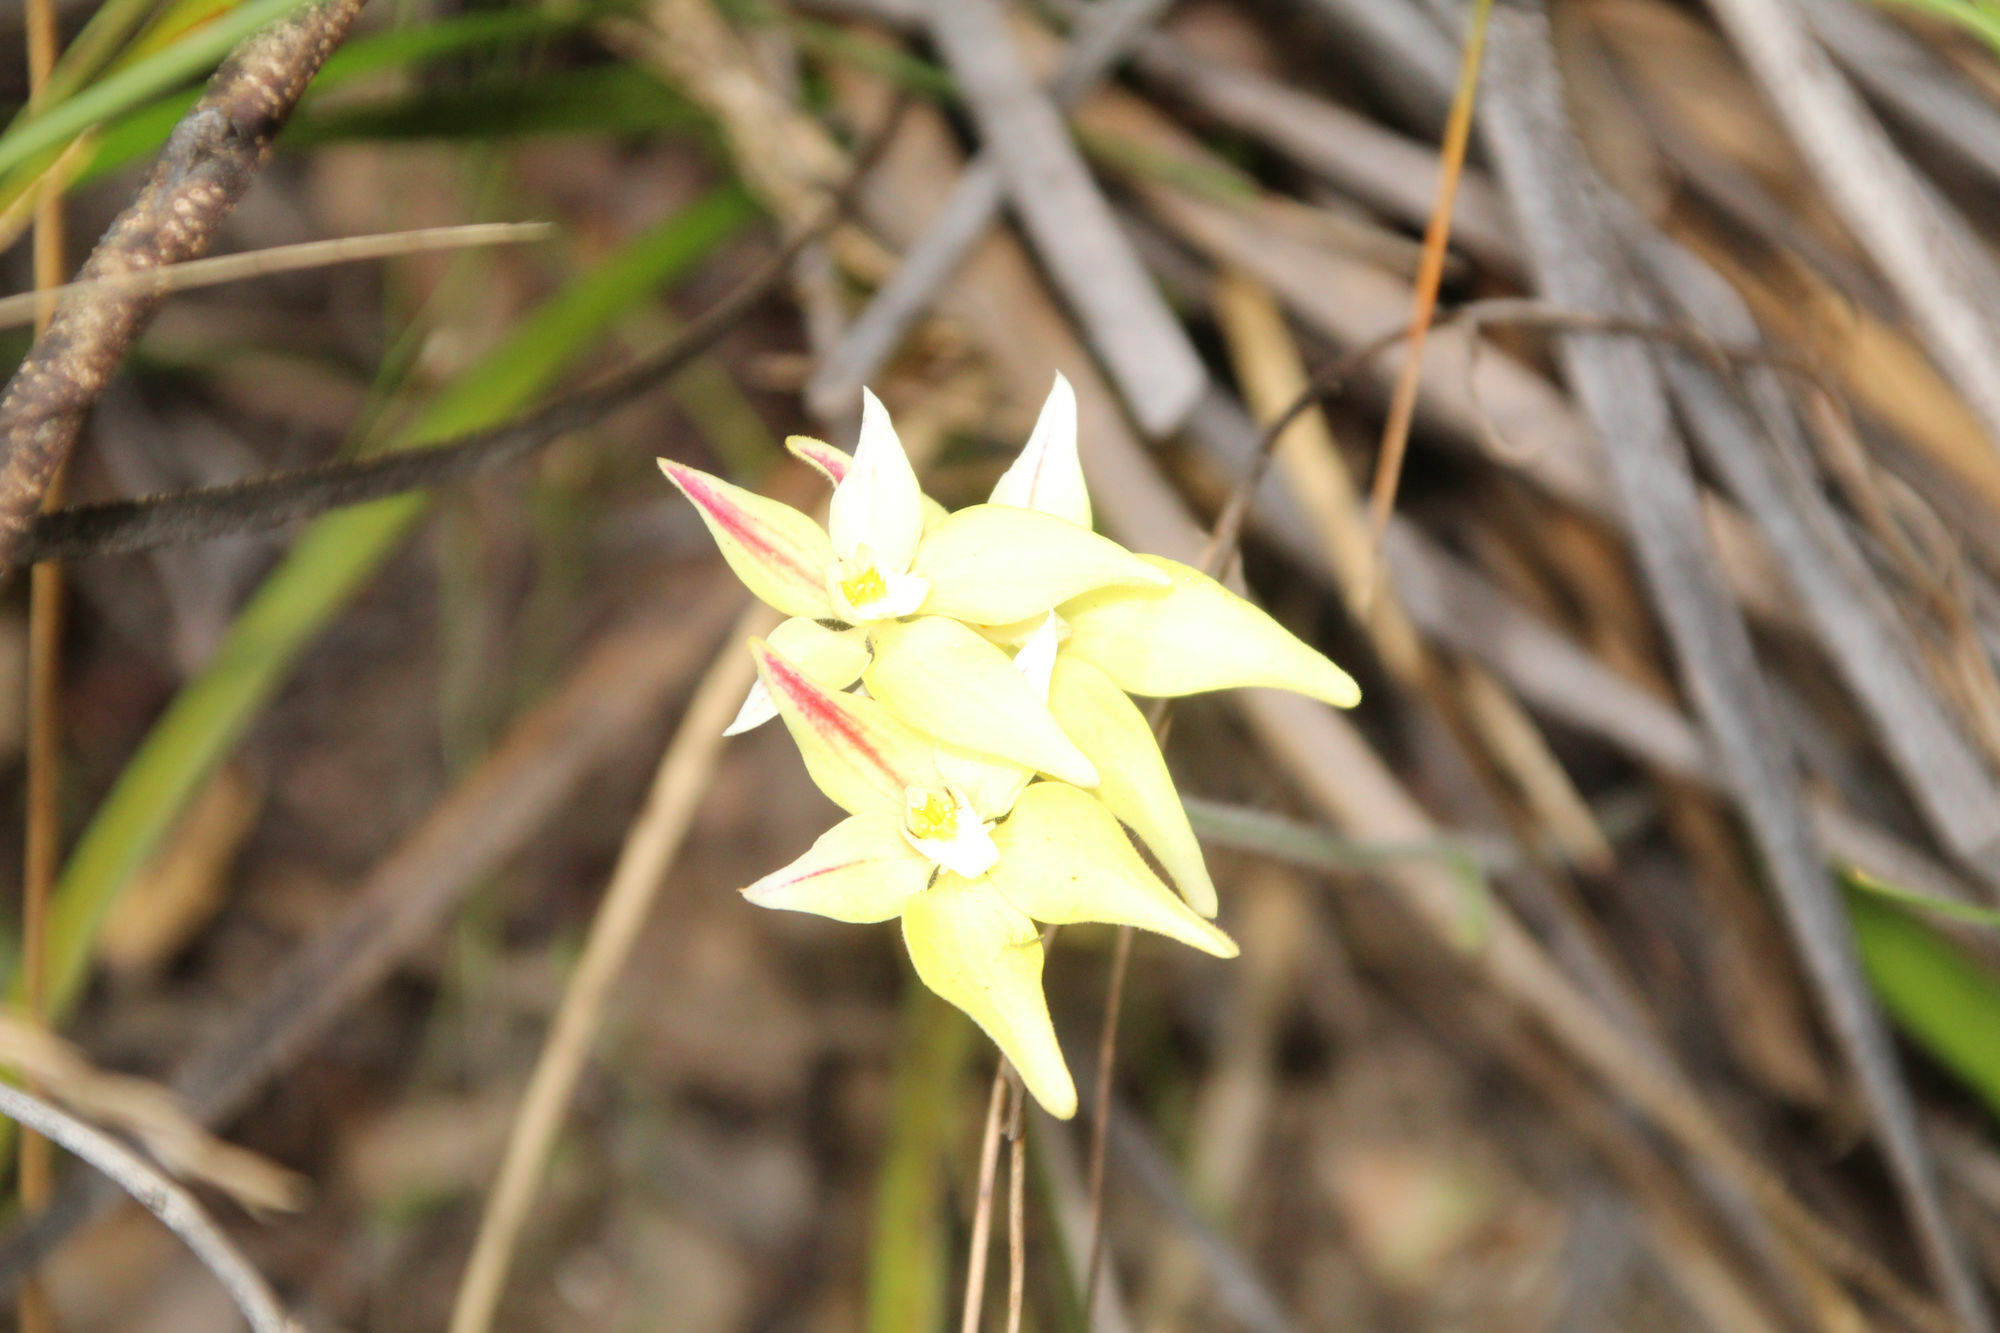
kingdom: Plantae
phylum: Tracheophyta
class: Liliopsida
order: Asparagales
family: Orchidaceae
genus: Caladenia
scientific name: Caladenia flava
